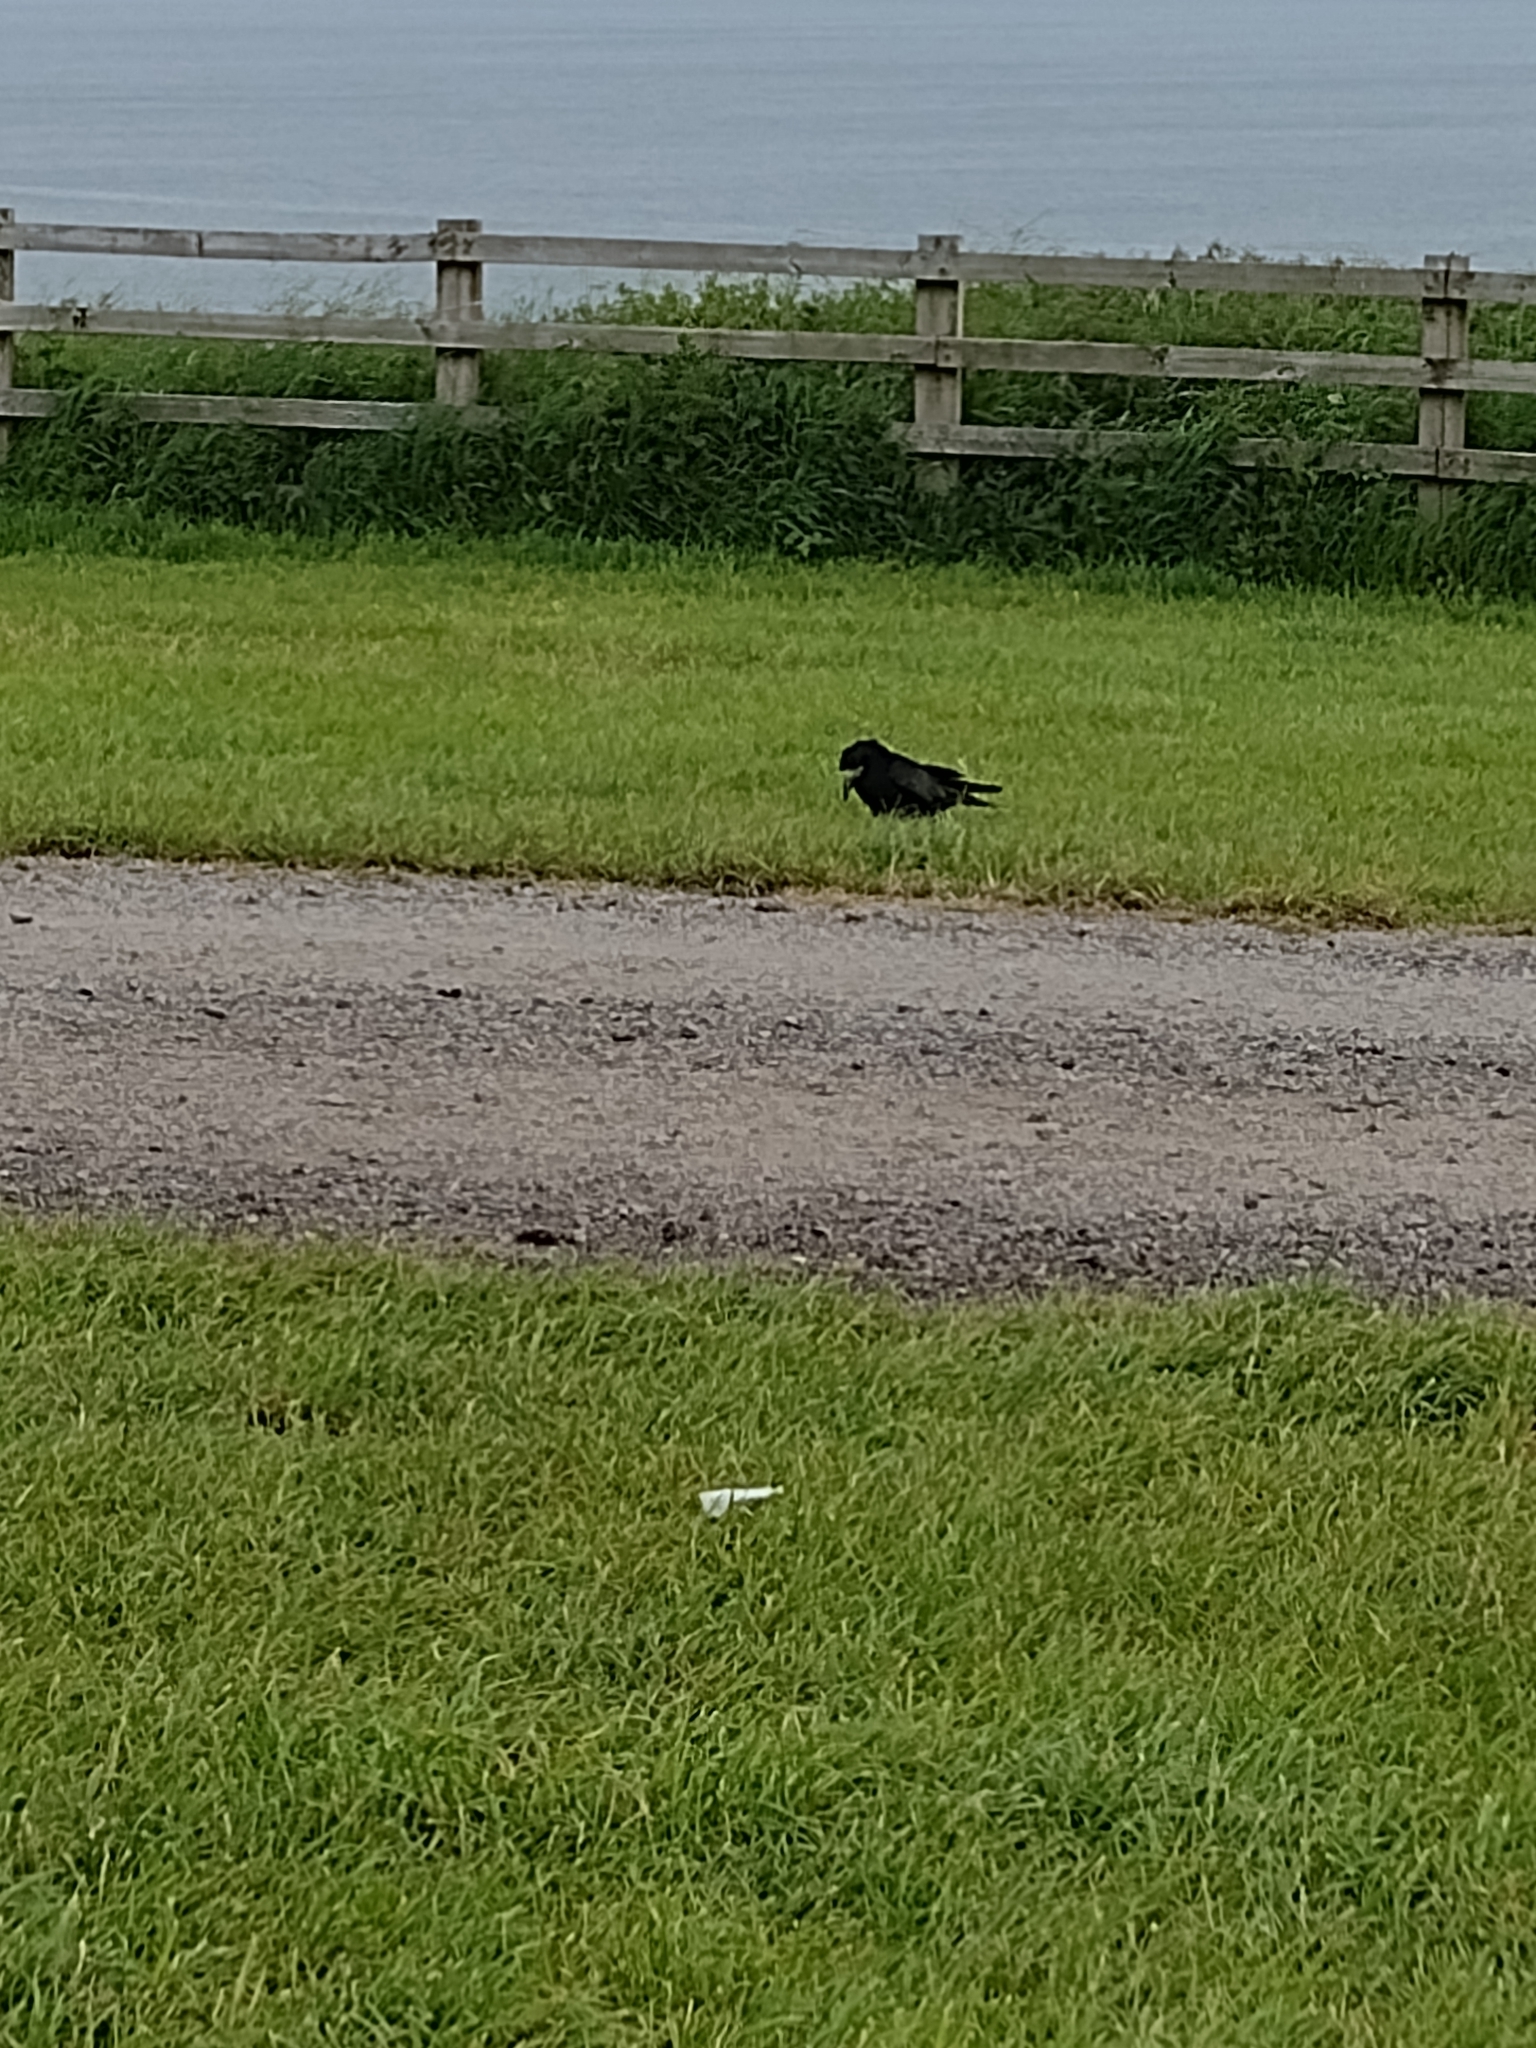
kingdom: Animalia
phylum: Chordata
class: Aves
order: Passeriformes
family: Corvidae
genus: Corvus
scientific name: Corvus frugilegus
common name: Rook
